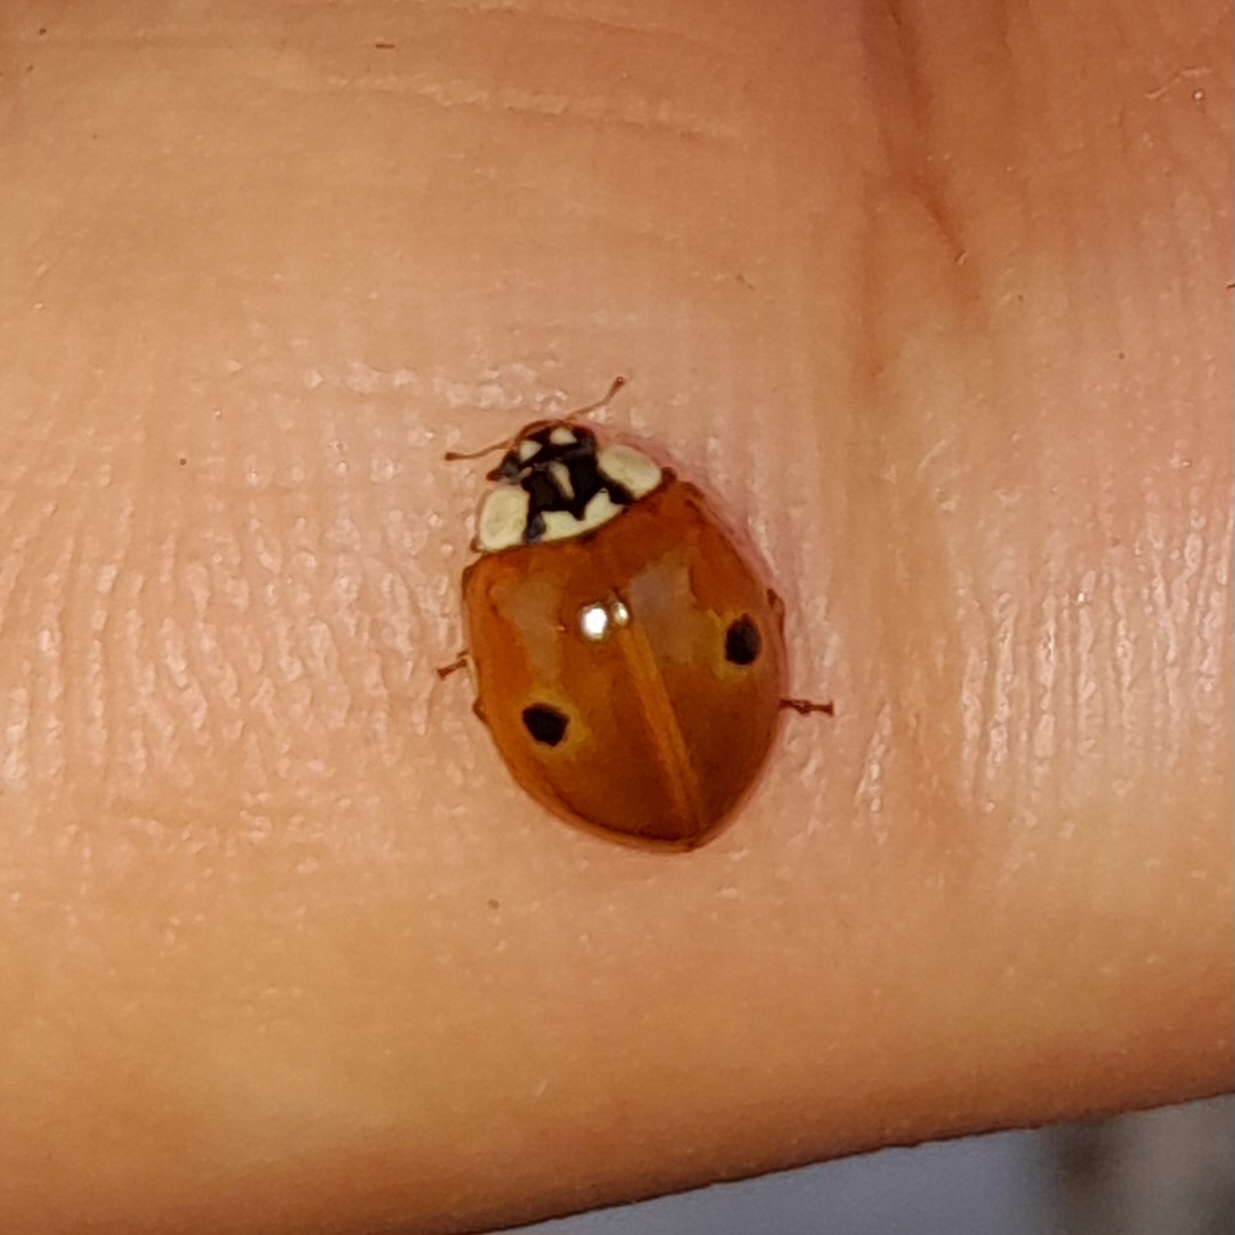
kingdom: Animalia
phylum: Arthropoda
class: Insecta
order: Coleoptera
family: Coccinellidae
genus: Adalia
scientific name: Adalia bipunctata
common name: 2-spot ladybird
